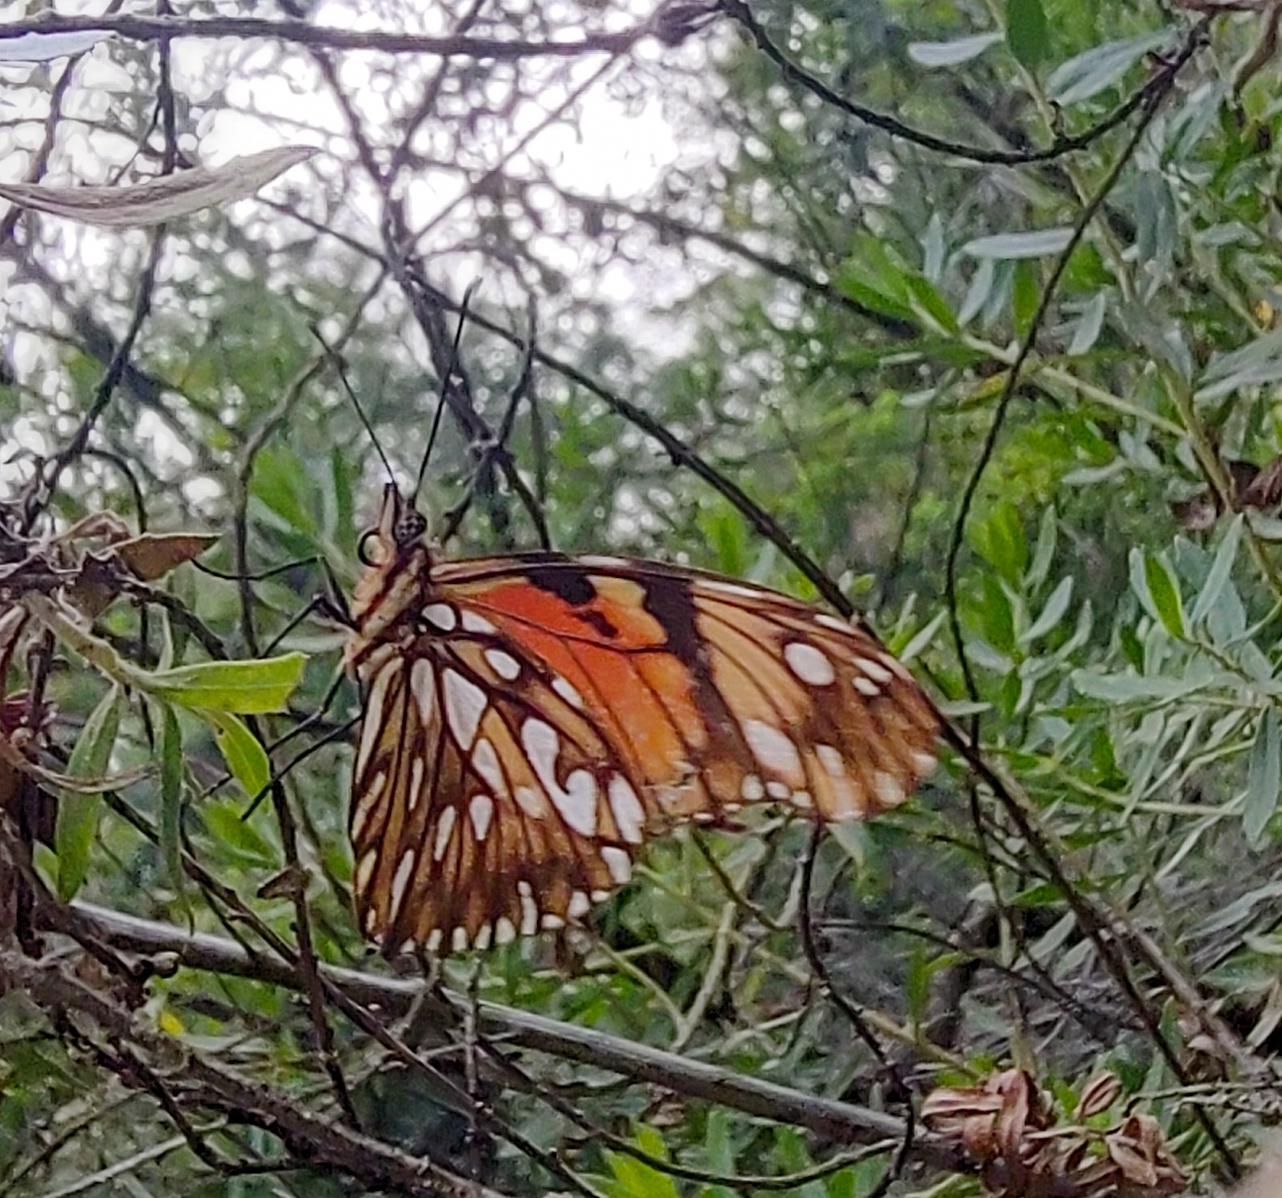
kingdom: Animalia
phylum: Arthropoda
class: Insecta
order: Lepidoptera
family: Nymphalidae
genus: Dione
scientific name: Dione juno
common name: Juno silverspot
